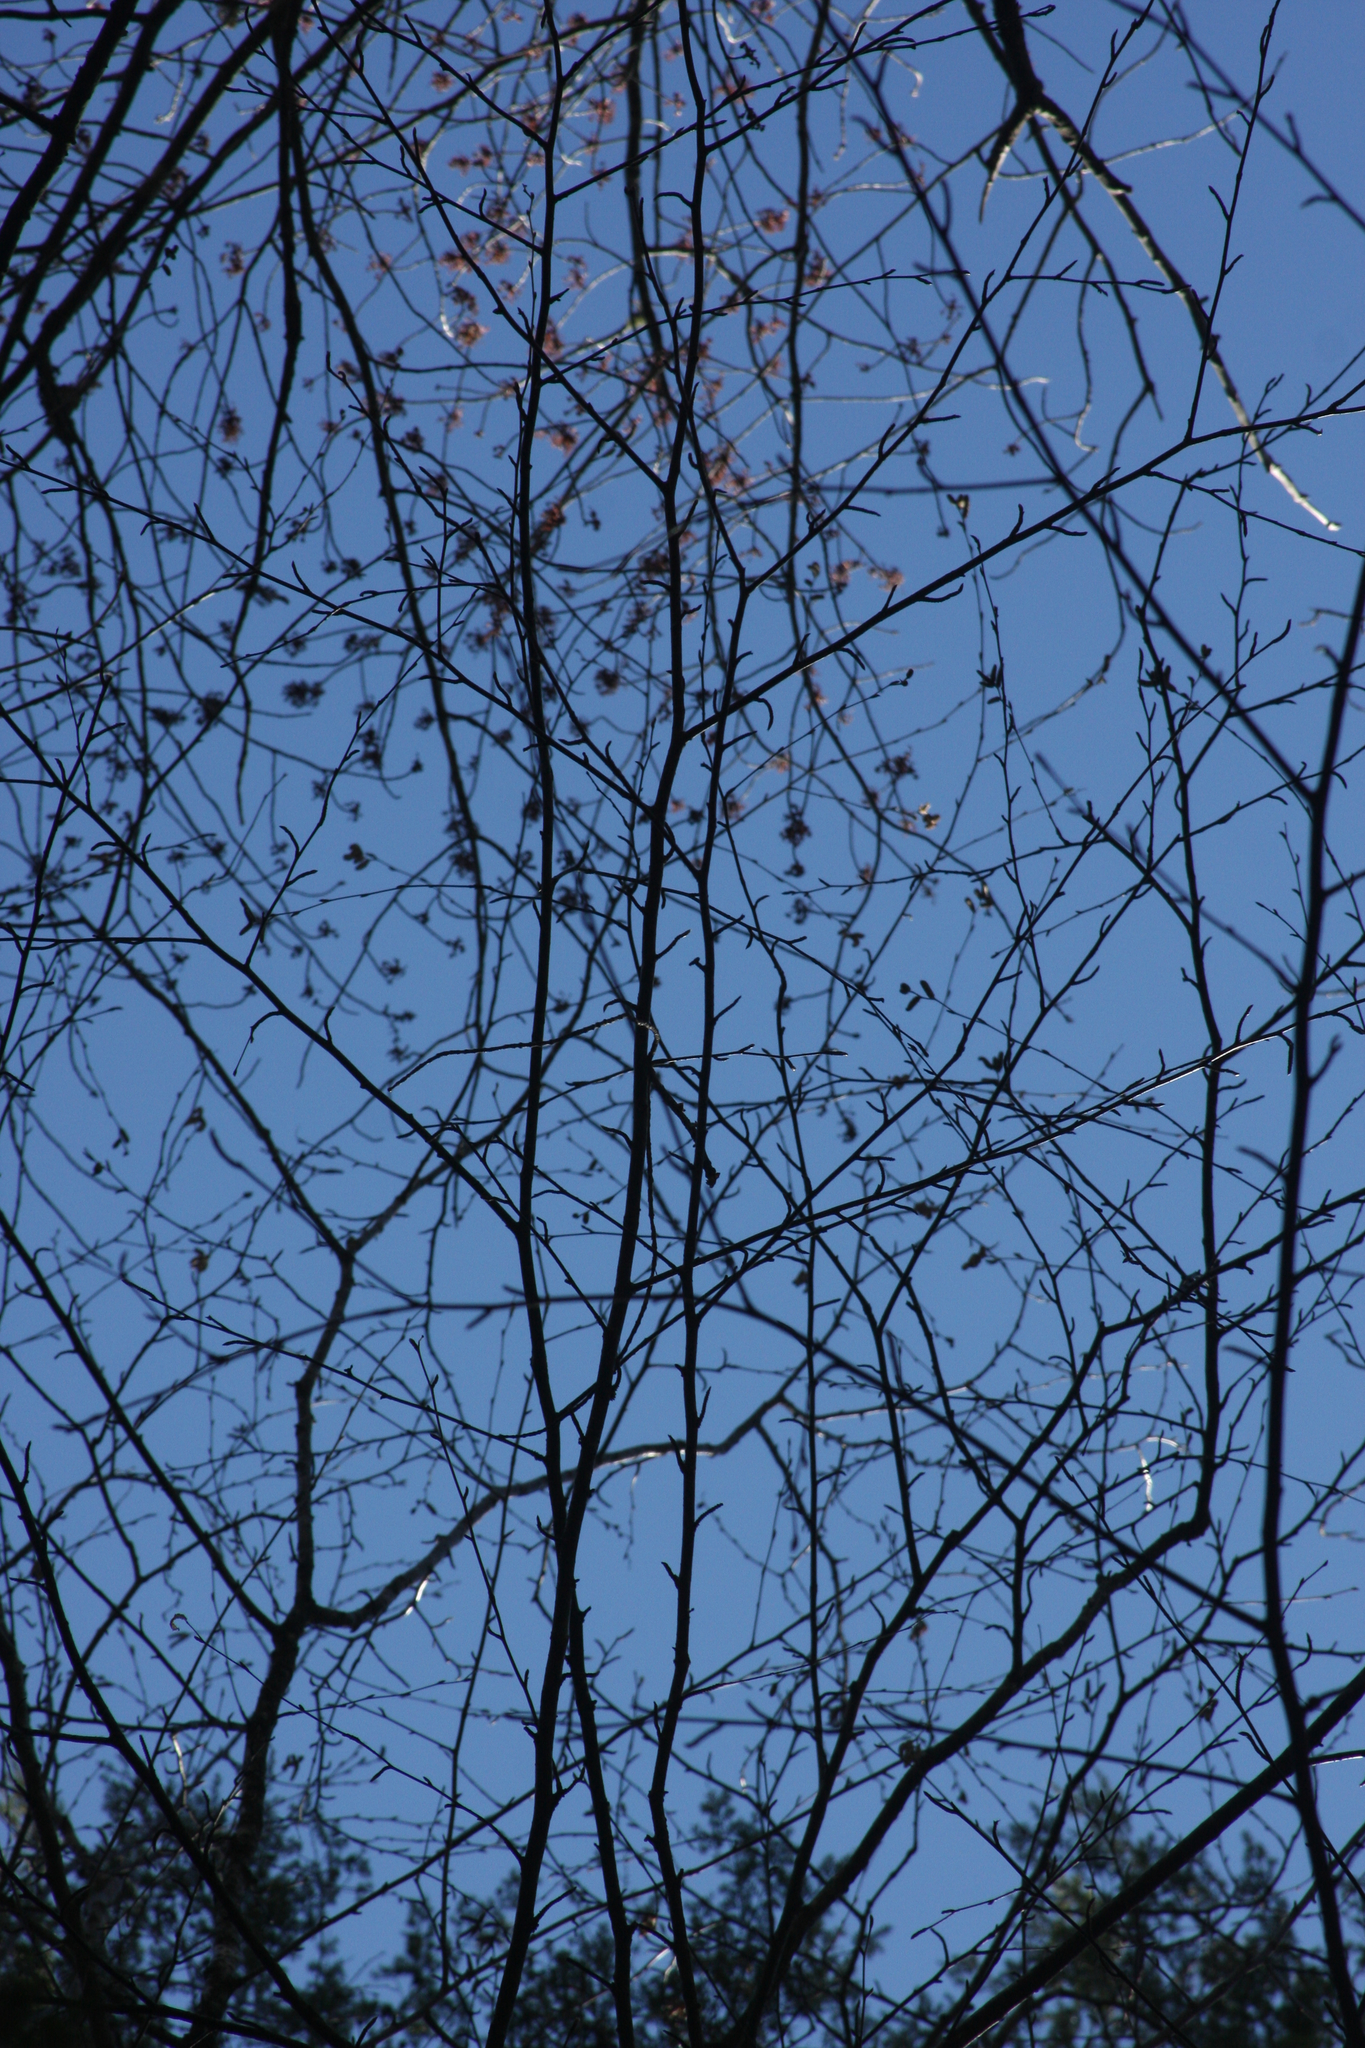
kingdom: Plantae
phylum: Tracheophyta
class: Magnoliopsida
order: Fagales
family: Betulaceae
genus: Betula
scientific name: Betula alleghaniensis
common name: Yellow birch
